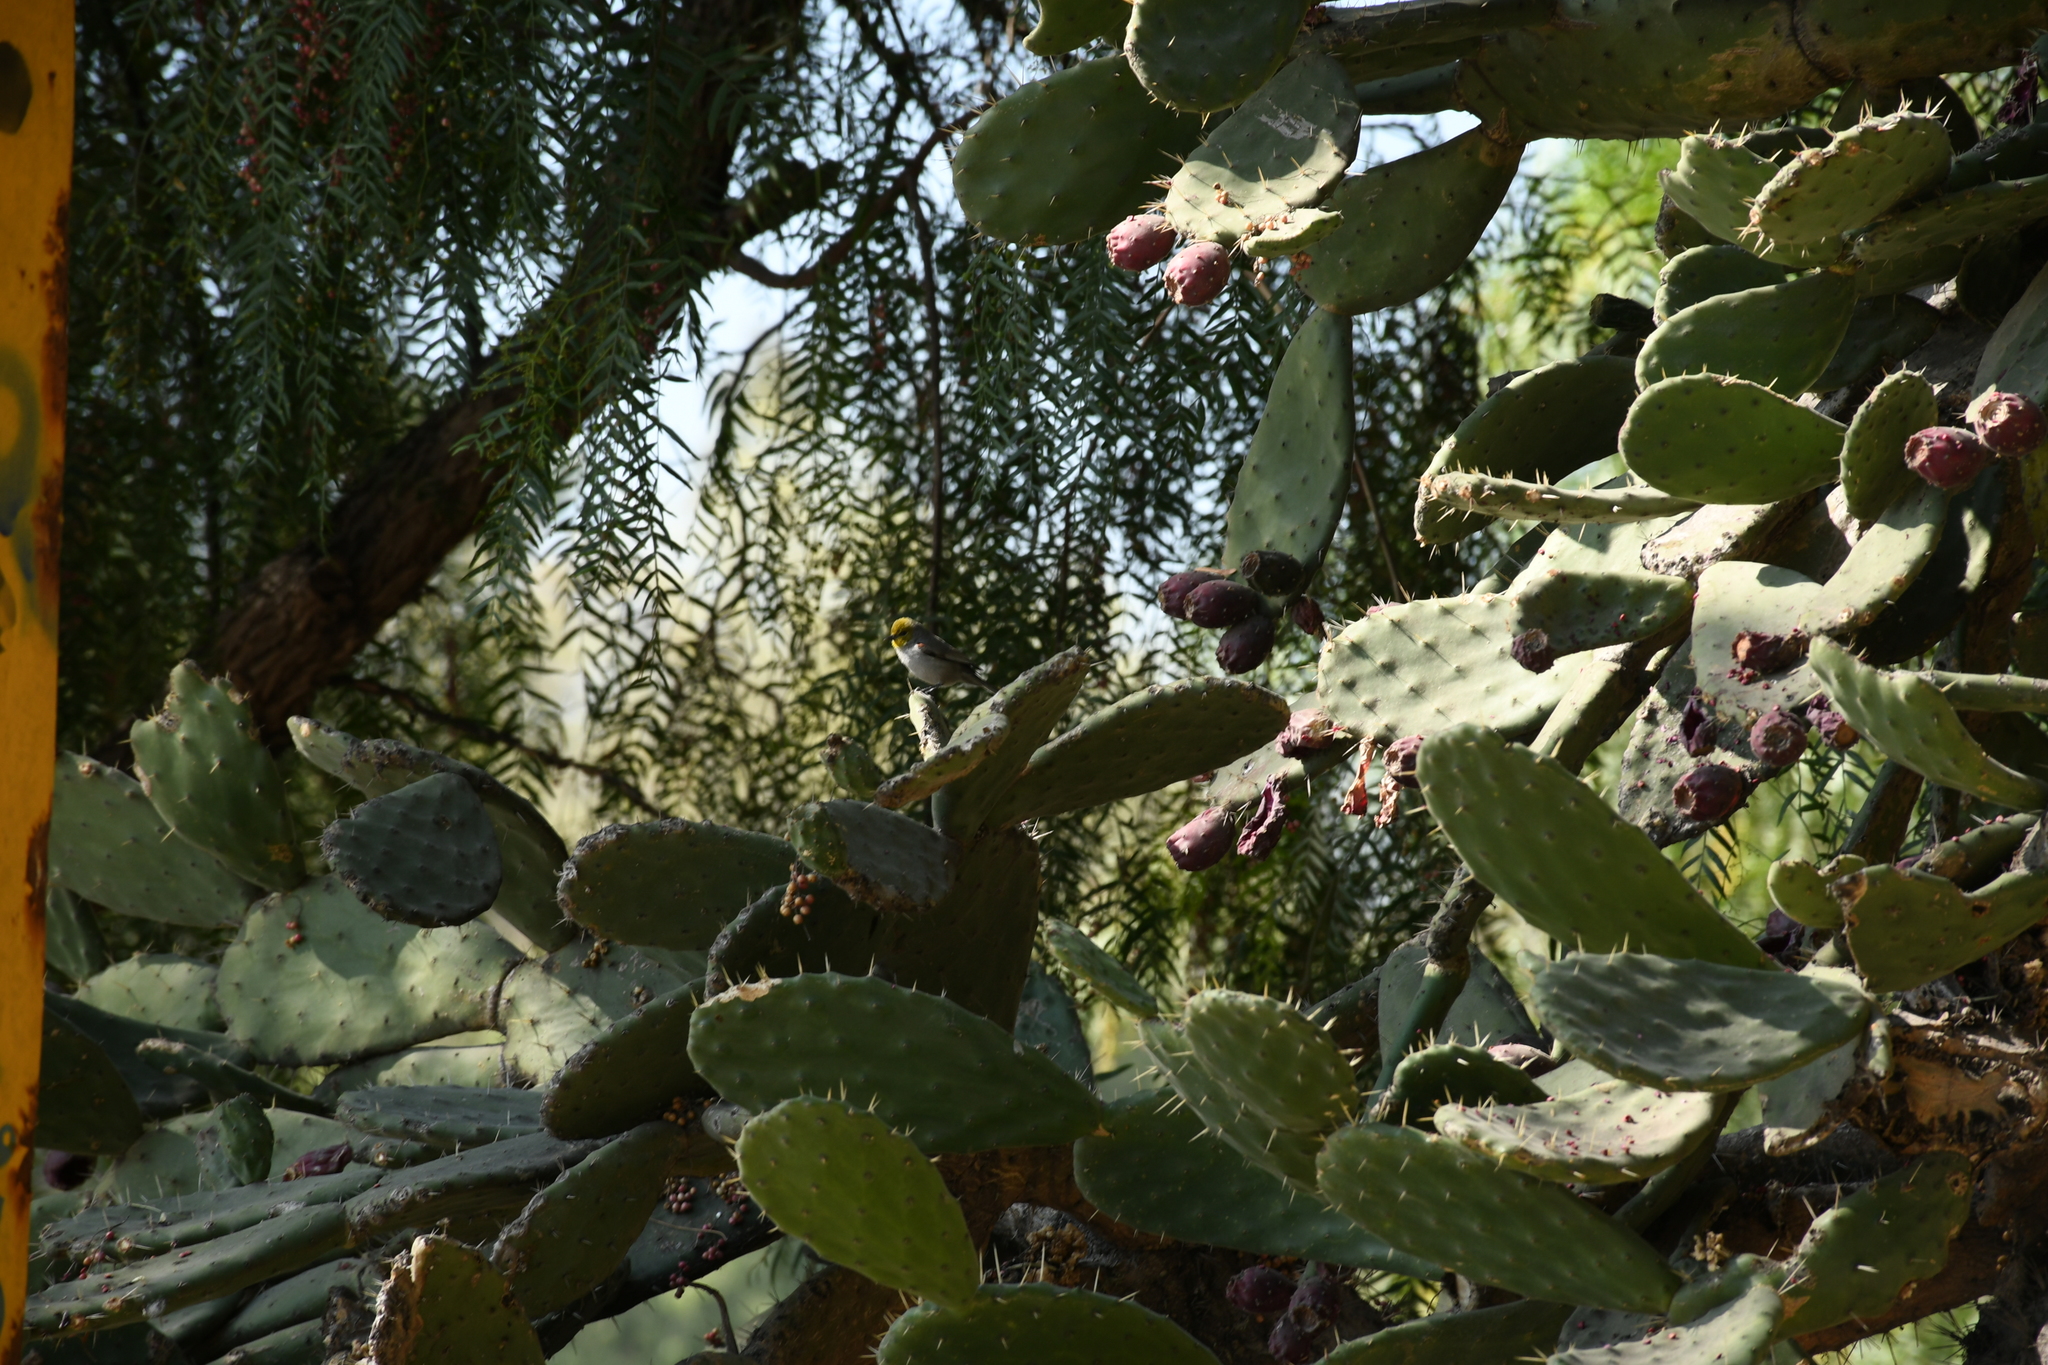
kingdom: Animalia
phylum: Chordata
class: Aves
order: Passeriformes
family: Remizidae
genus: Auriparus
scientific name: Auriparus flaviceps
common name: Verdin
